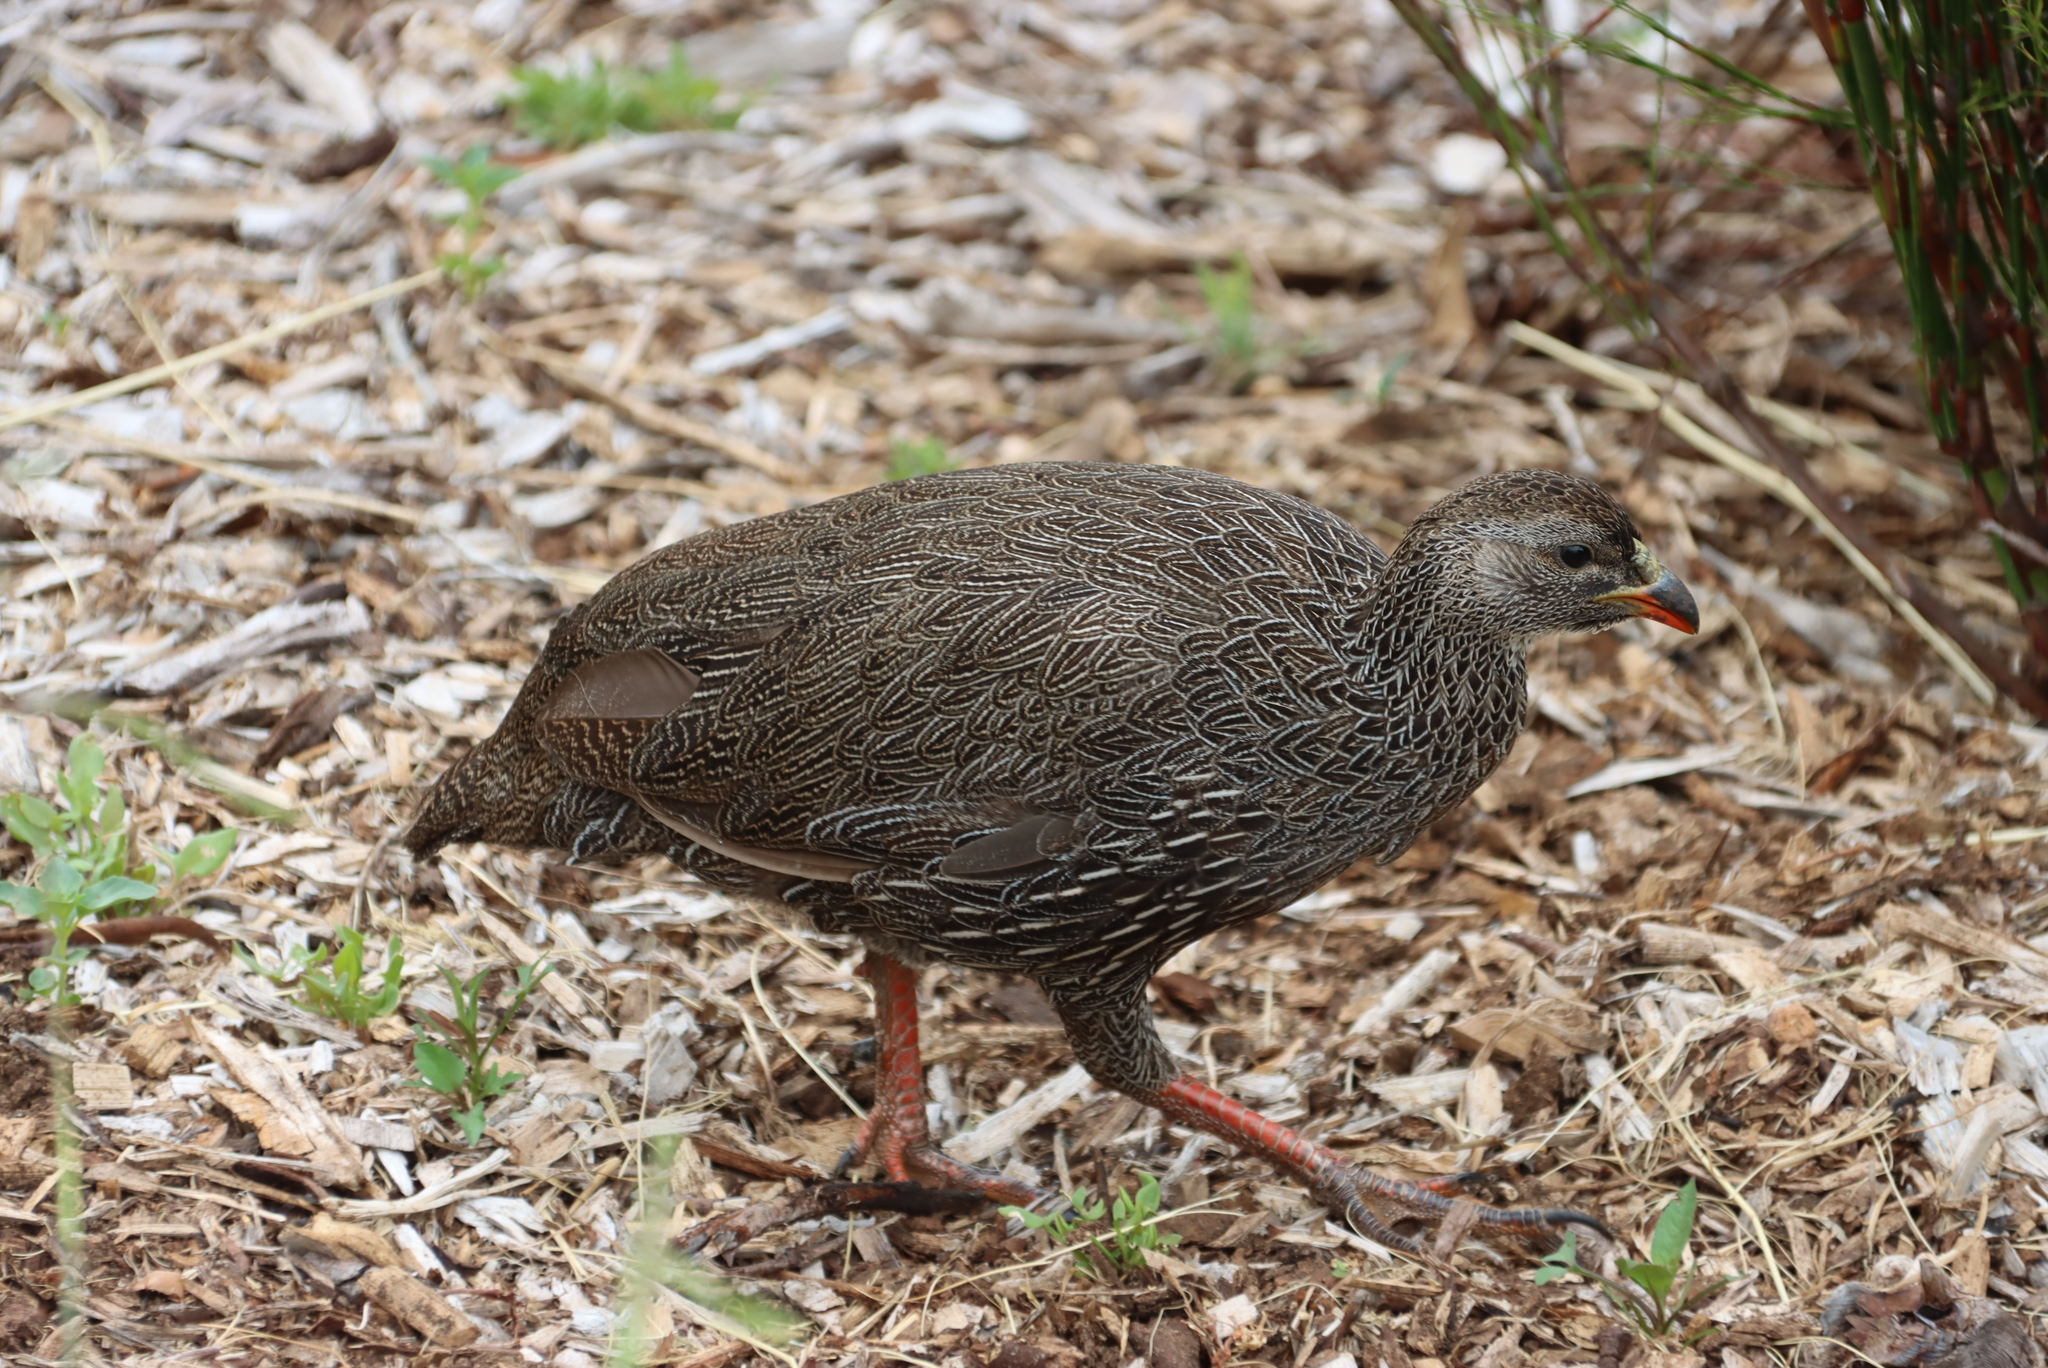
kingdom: Animalia
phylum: Chordata
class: Aves
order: Galliformes
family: Phasianidae
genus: Pternistis
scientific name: Pternistis capensis
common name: Cape spurfowl
